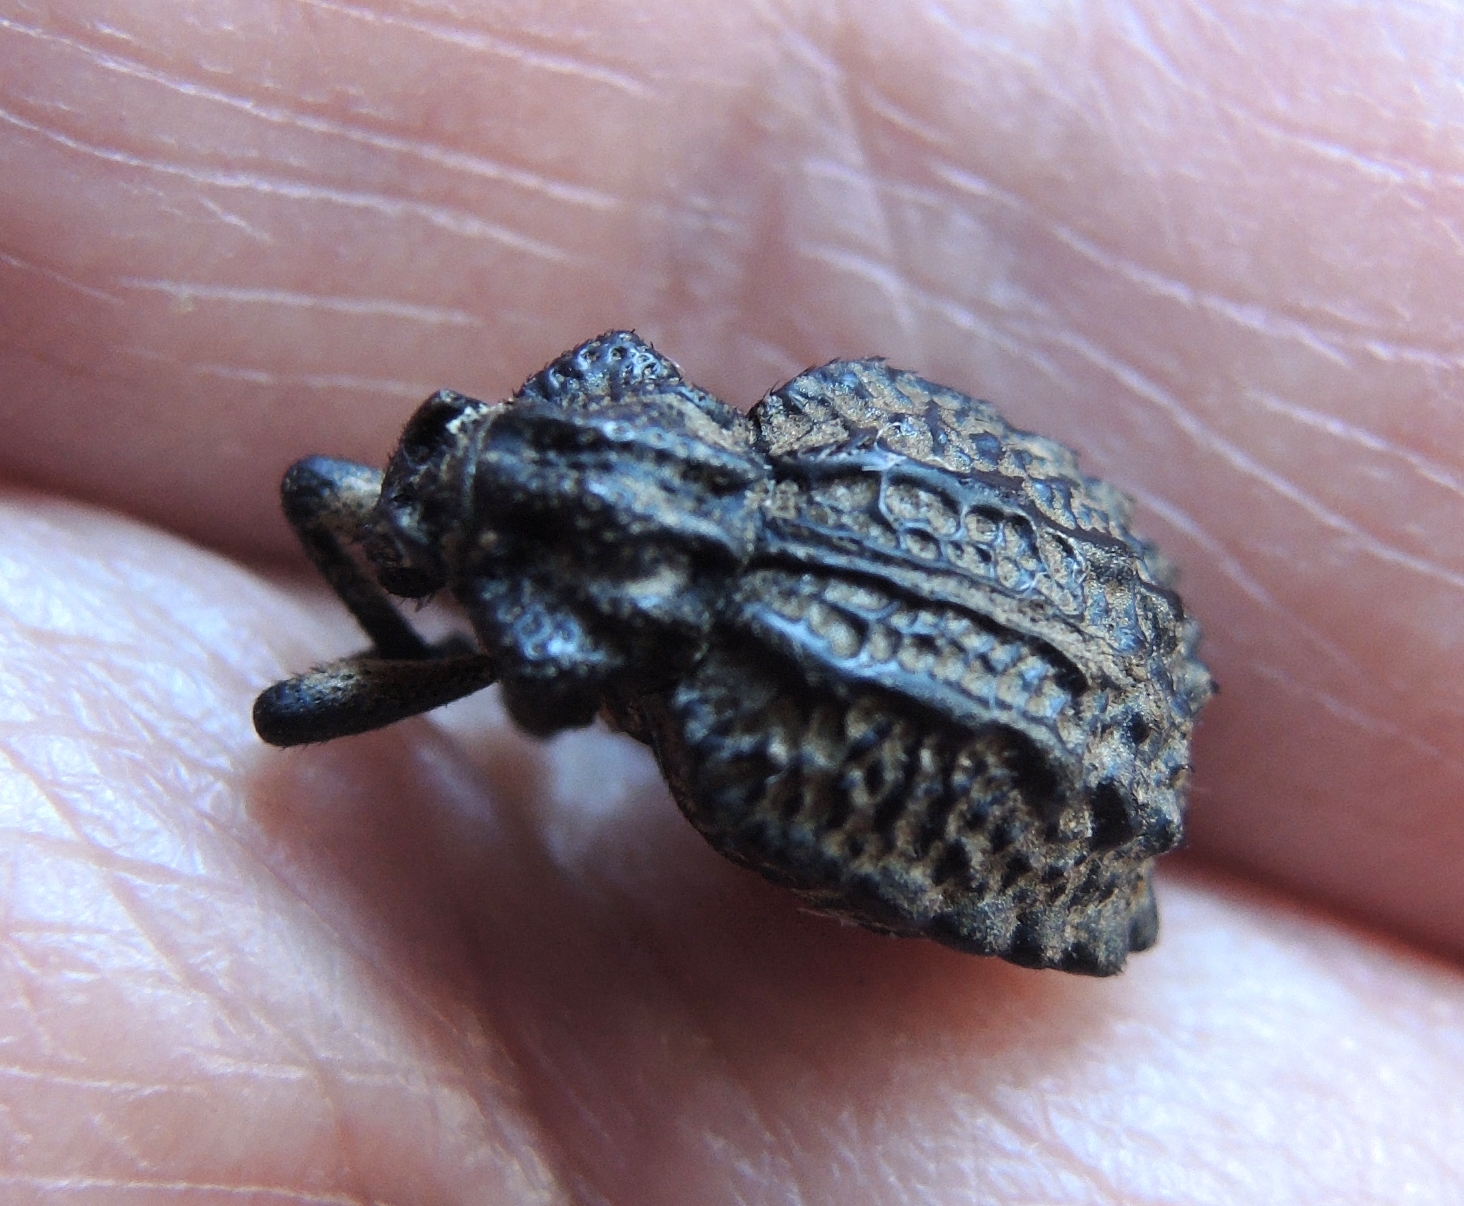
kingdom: Animalia
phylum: Arthropoda
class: Insecta
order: Coleoptera
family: Brachyceridae
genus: Brachycerus
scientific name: Brachycerus undatus
